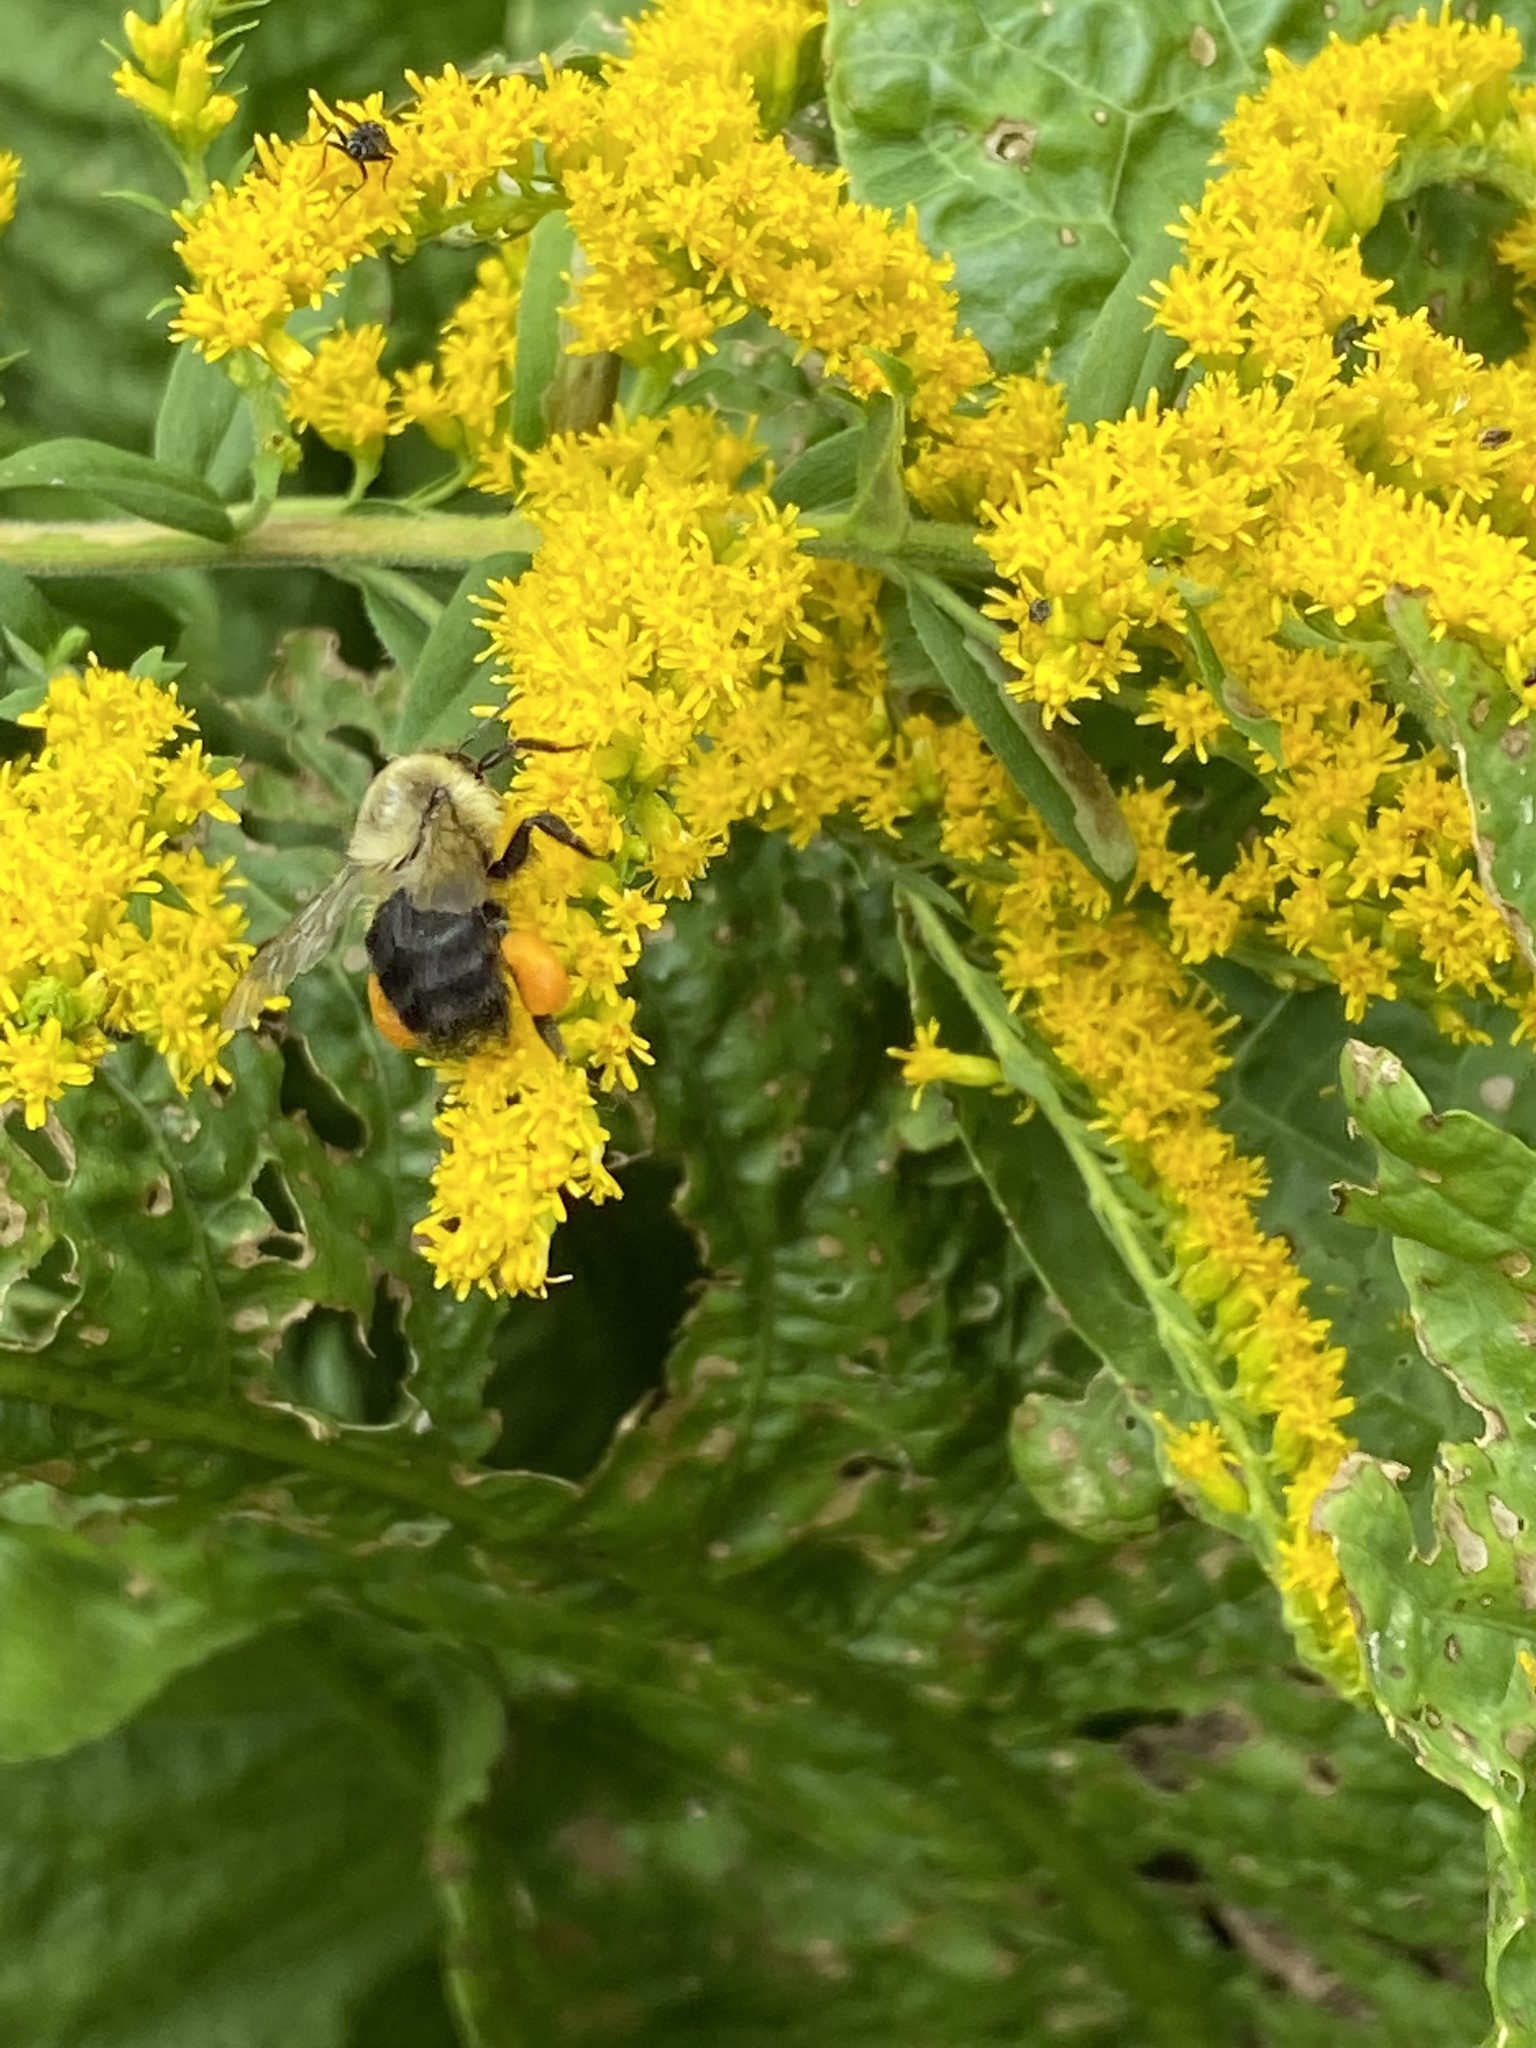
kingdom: Animalia
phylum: Arthropoda
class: Insecta
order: Hymenoptera
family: Apidae
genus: Bombus
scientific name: Bombus impatiens
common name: Common eastern bumble bee
